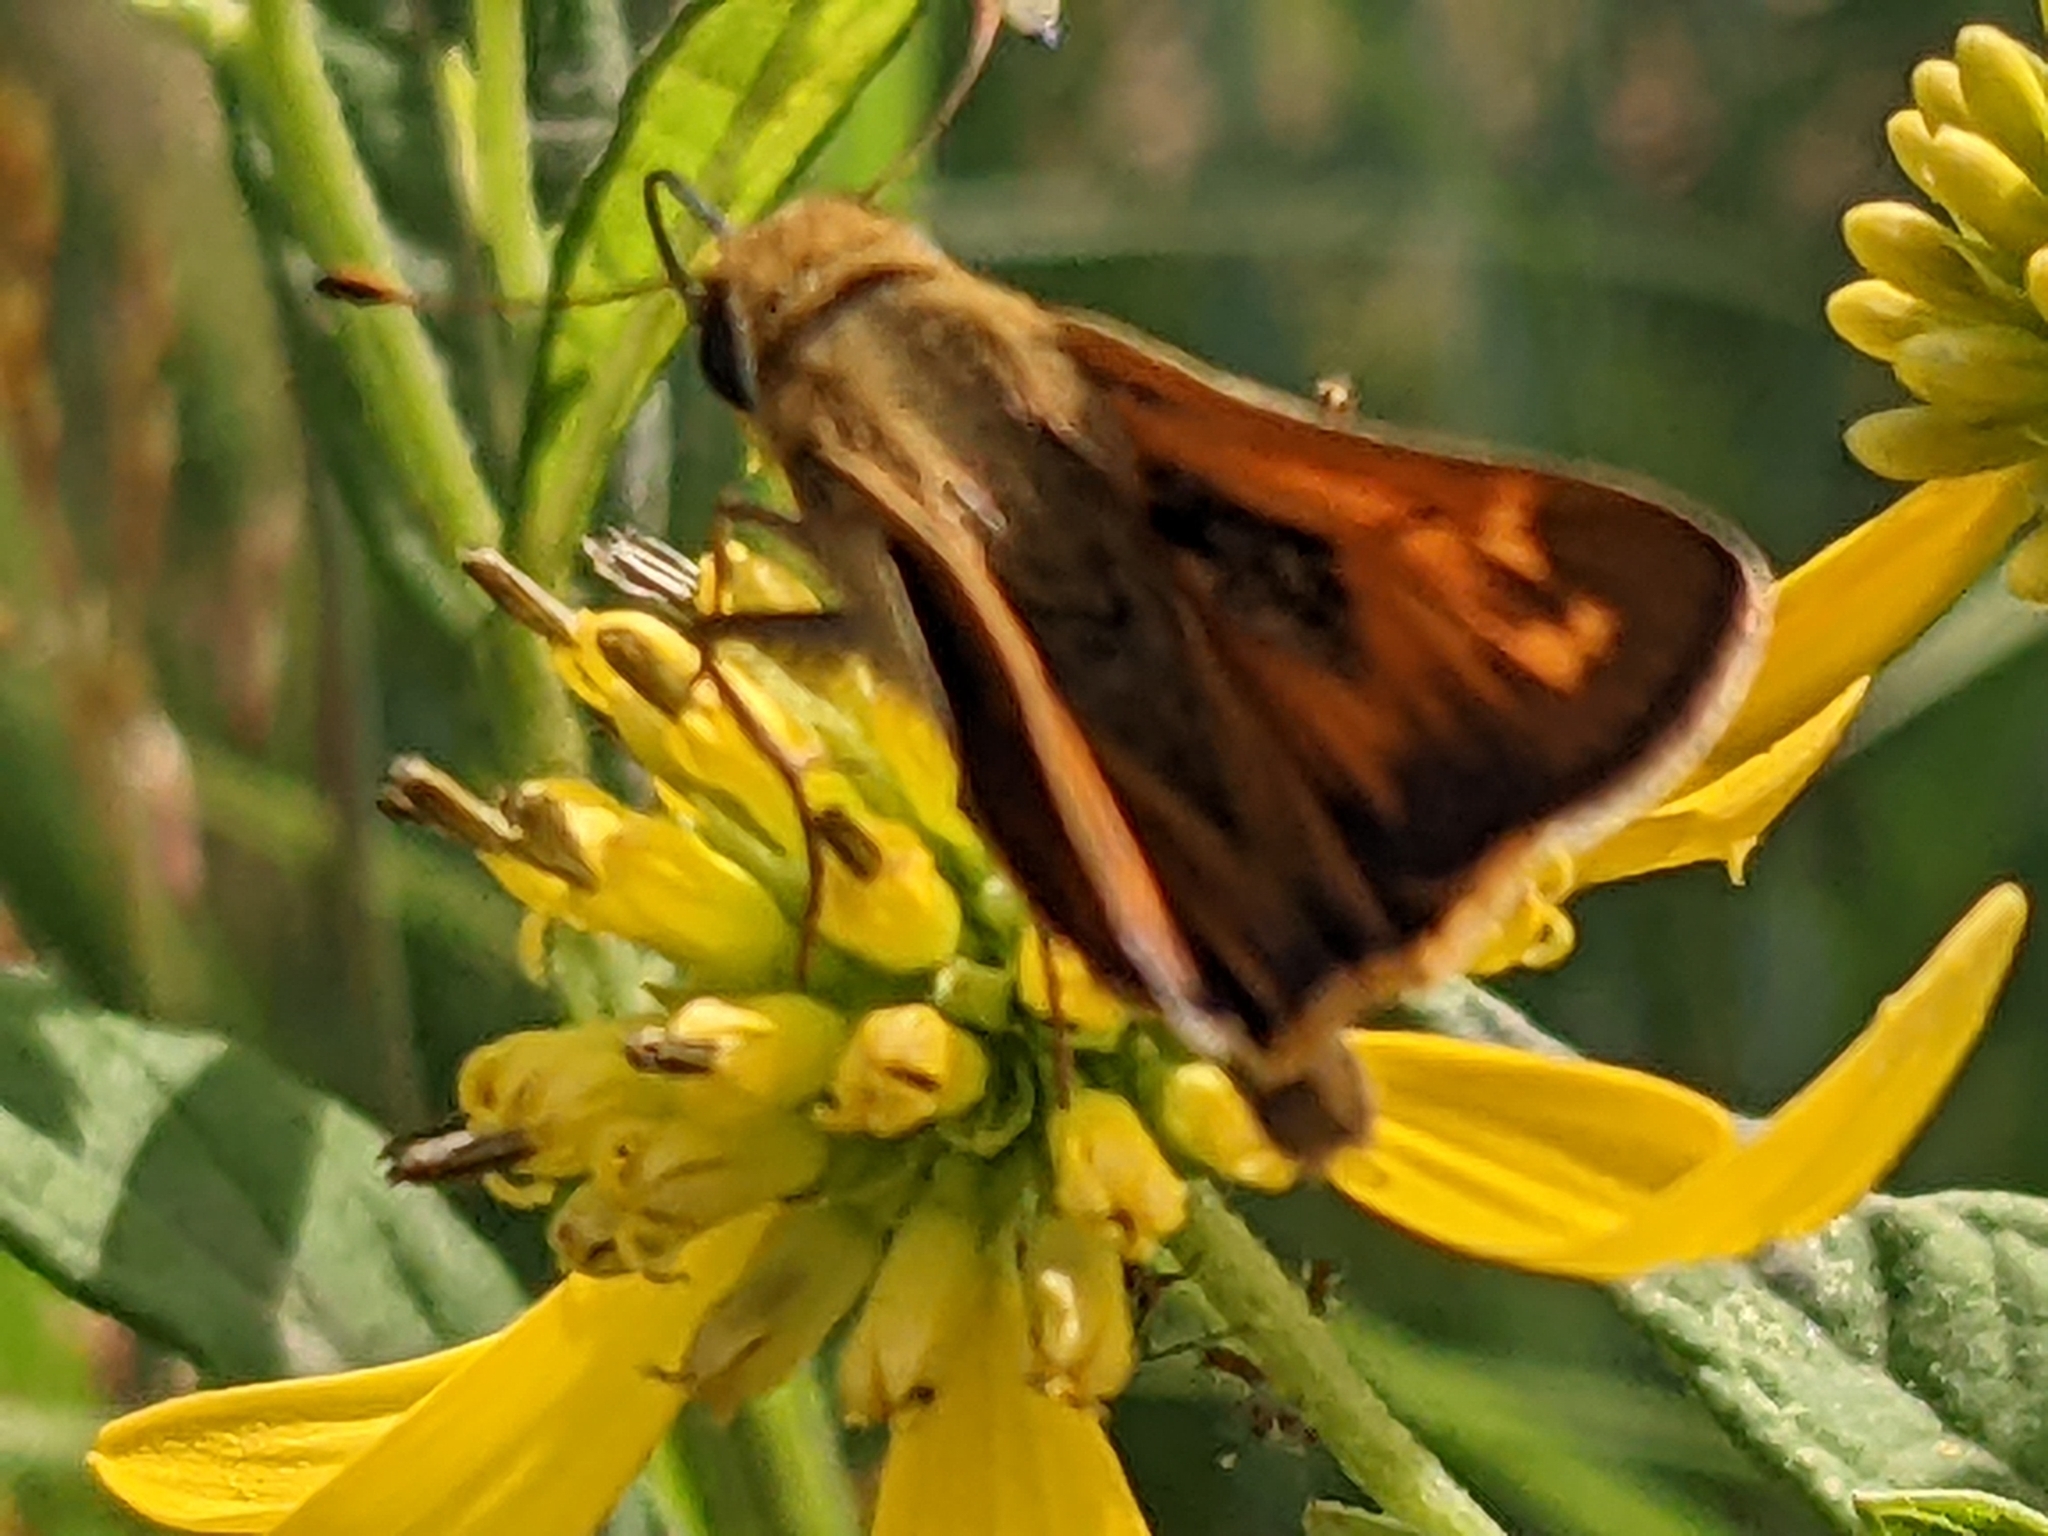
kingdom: Animalia
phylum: Arthropoda
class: Insecta
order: Lepidoptera
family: Hesperiidae
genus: Atalopedes
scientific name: Atalopedes
